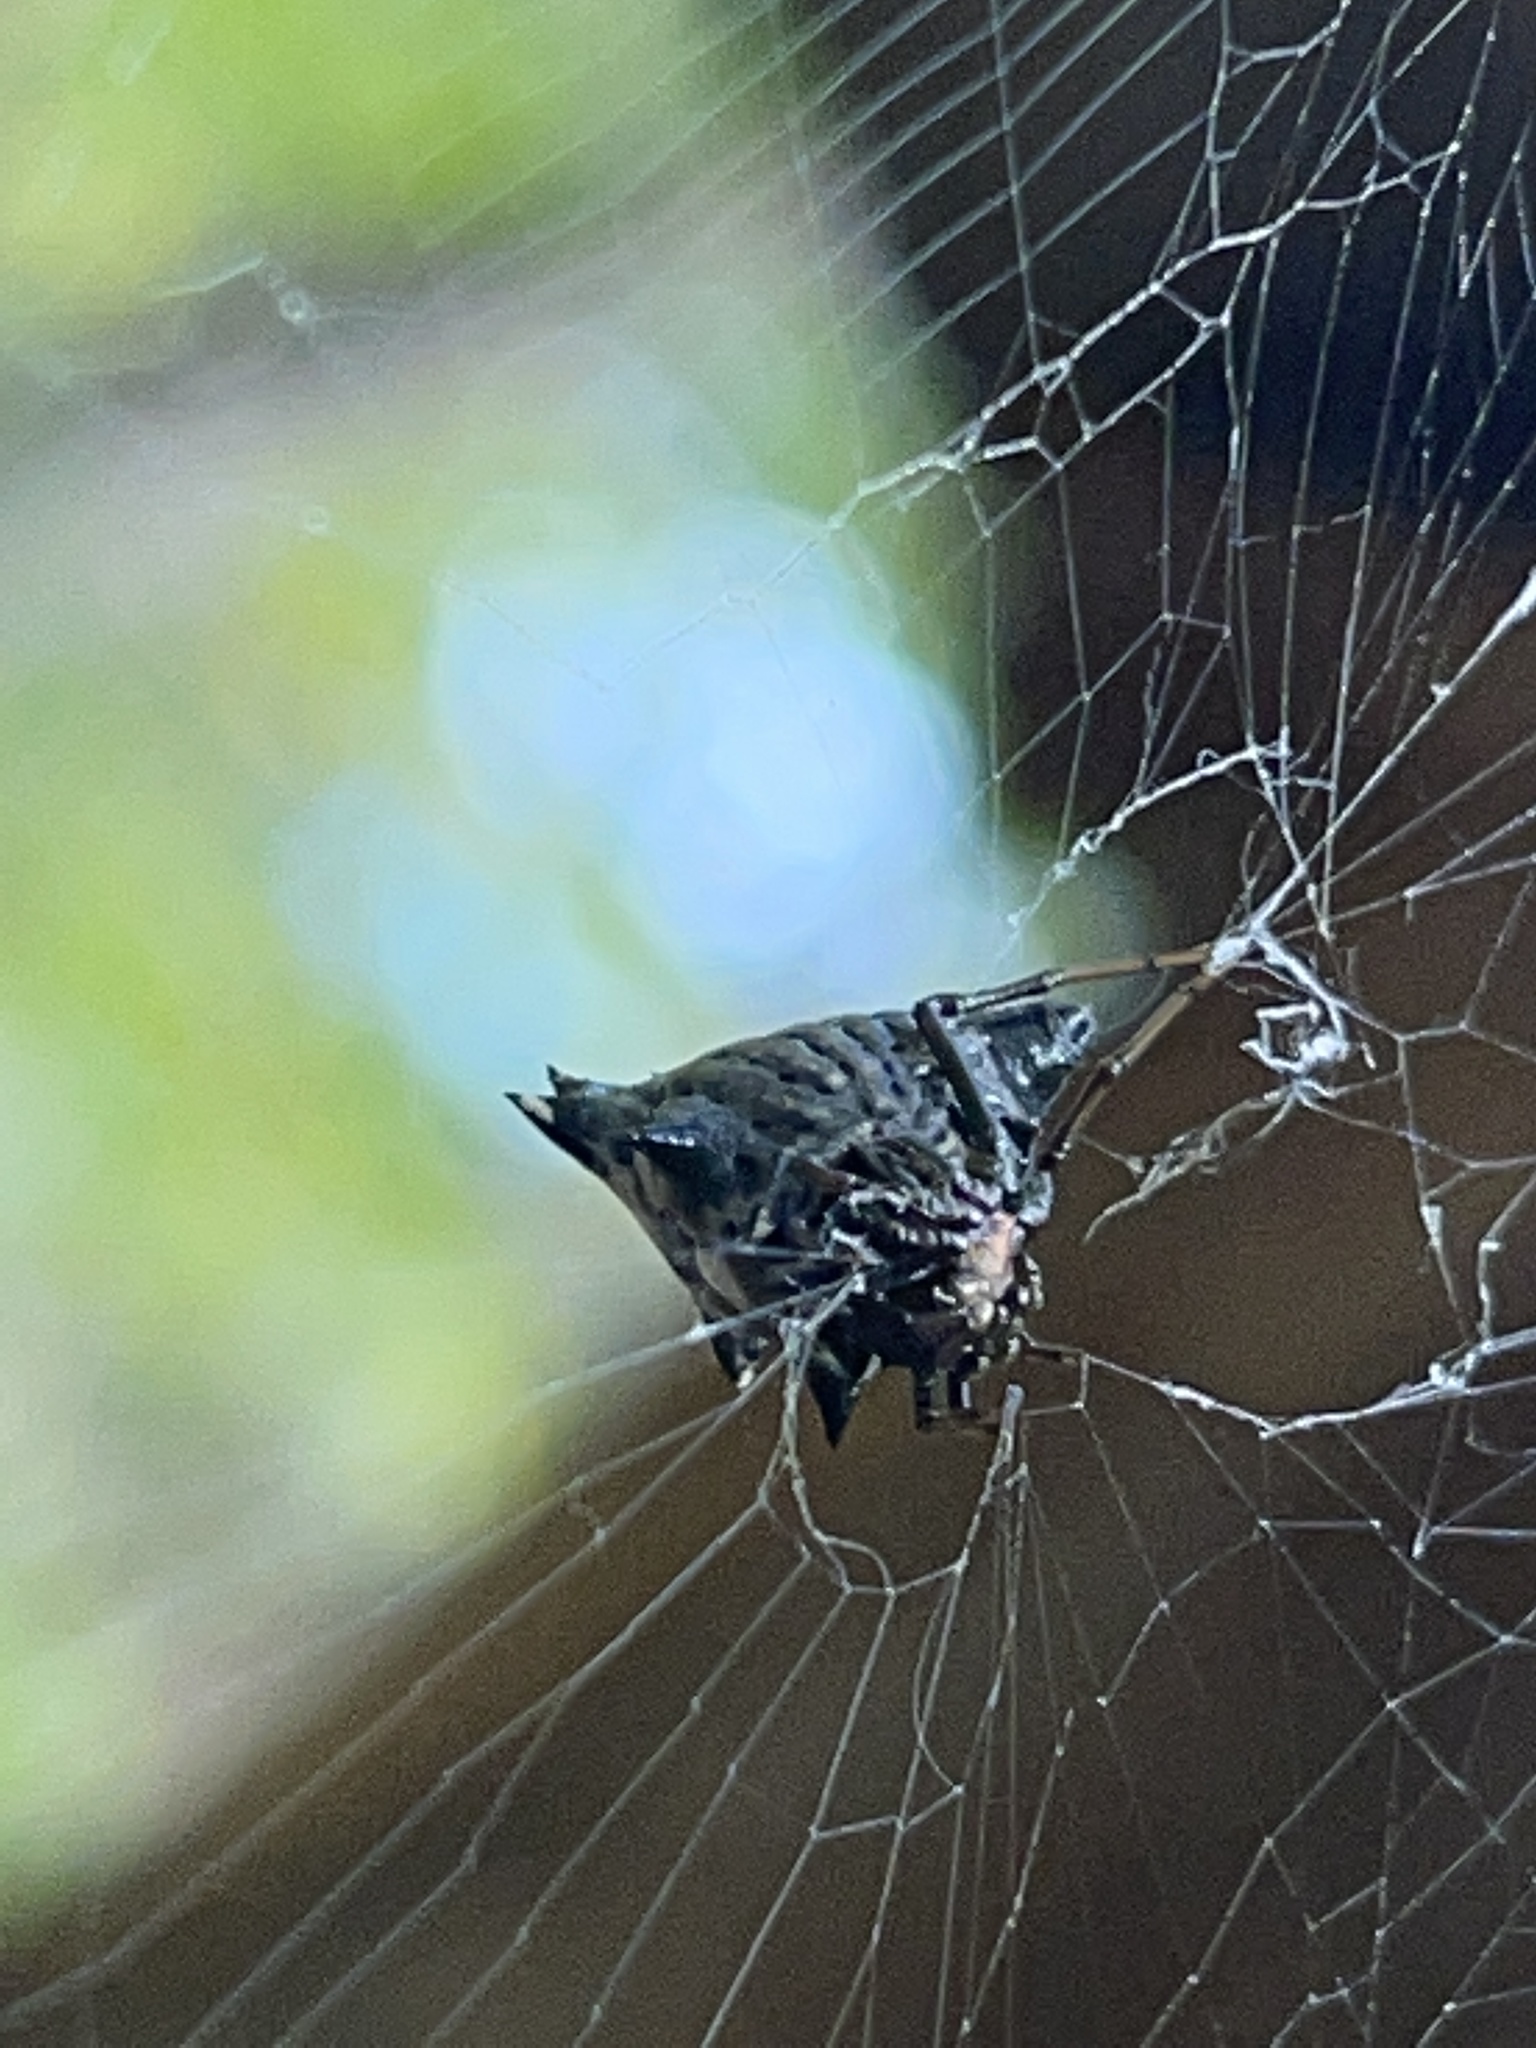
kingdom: Animalia
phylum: Arthropoda
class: Arachnida
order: Araneae
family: Araneidae
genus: Micrathena
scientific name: Micrathena gracilis
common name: Orb weavers
